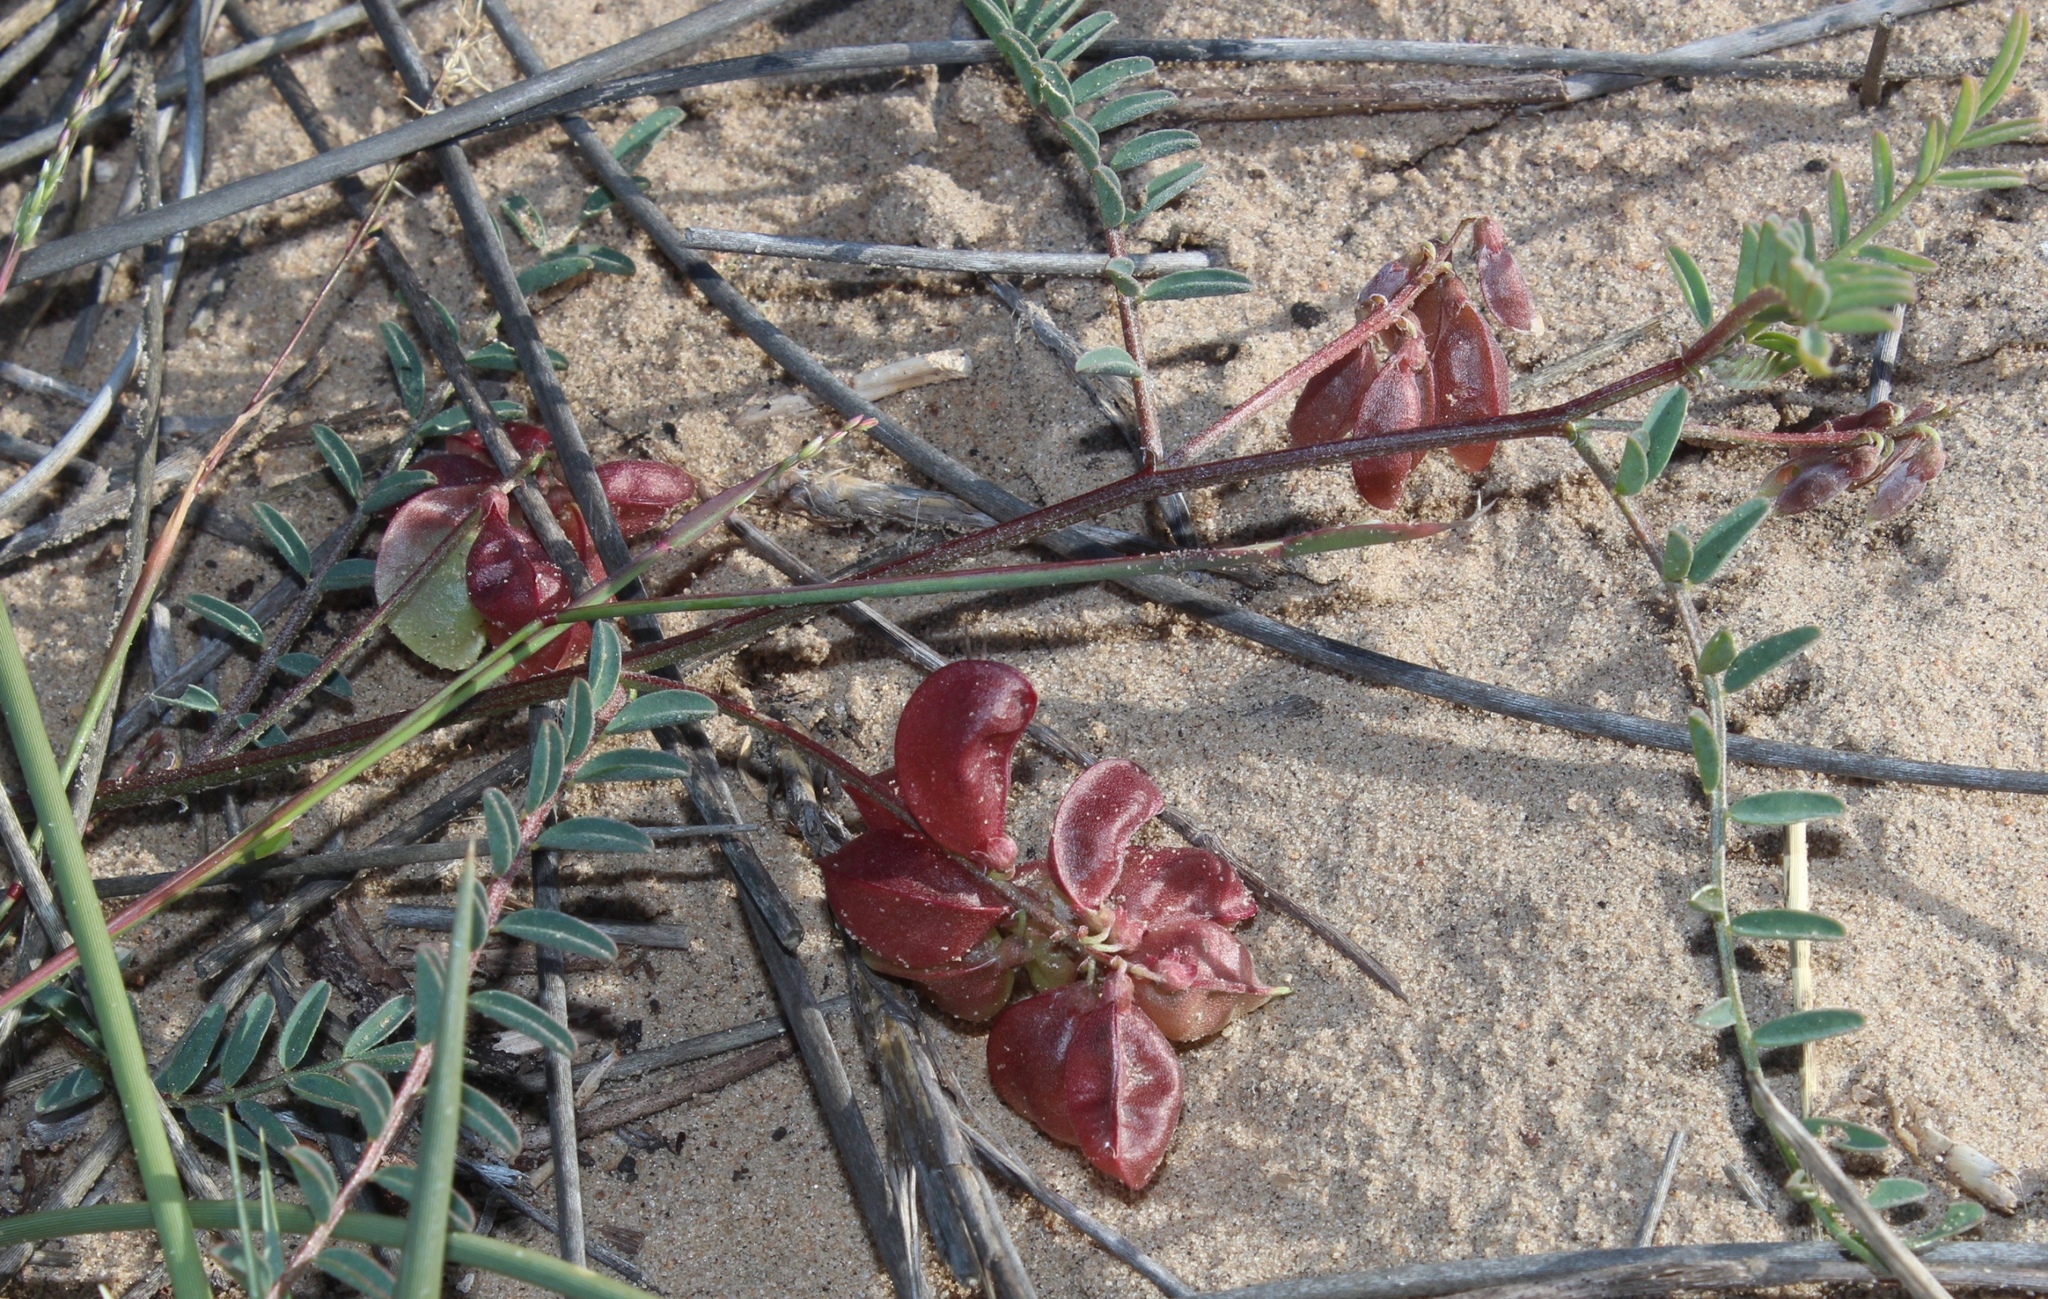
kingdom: Plantae
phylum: Tracheophyta
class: Magnoliopsida
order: Fabales
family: Fabaceae
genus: Lessertia
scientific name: Lessertia inflata
